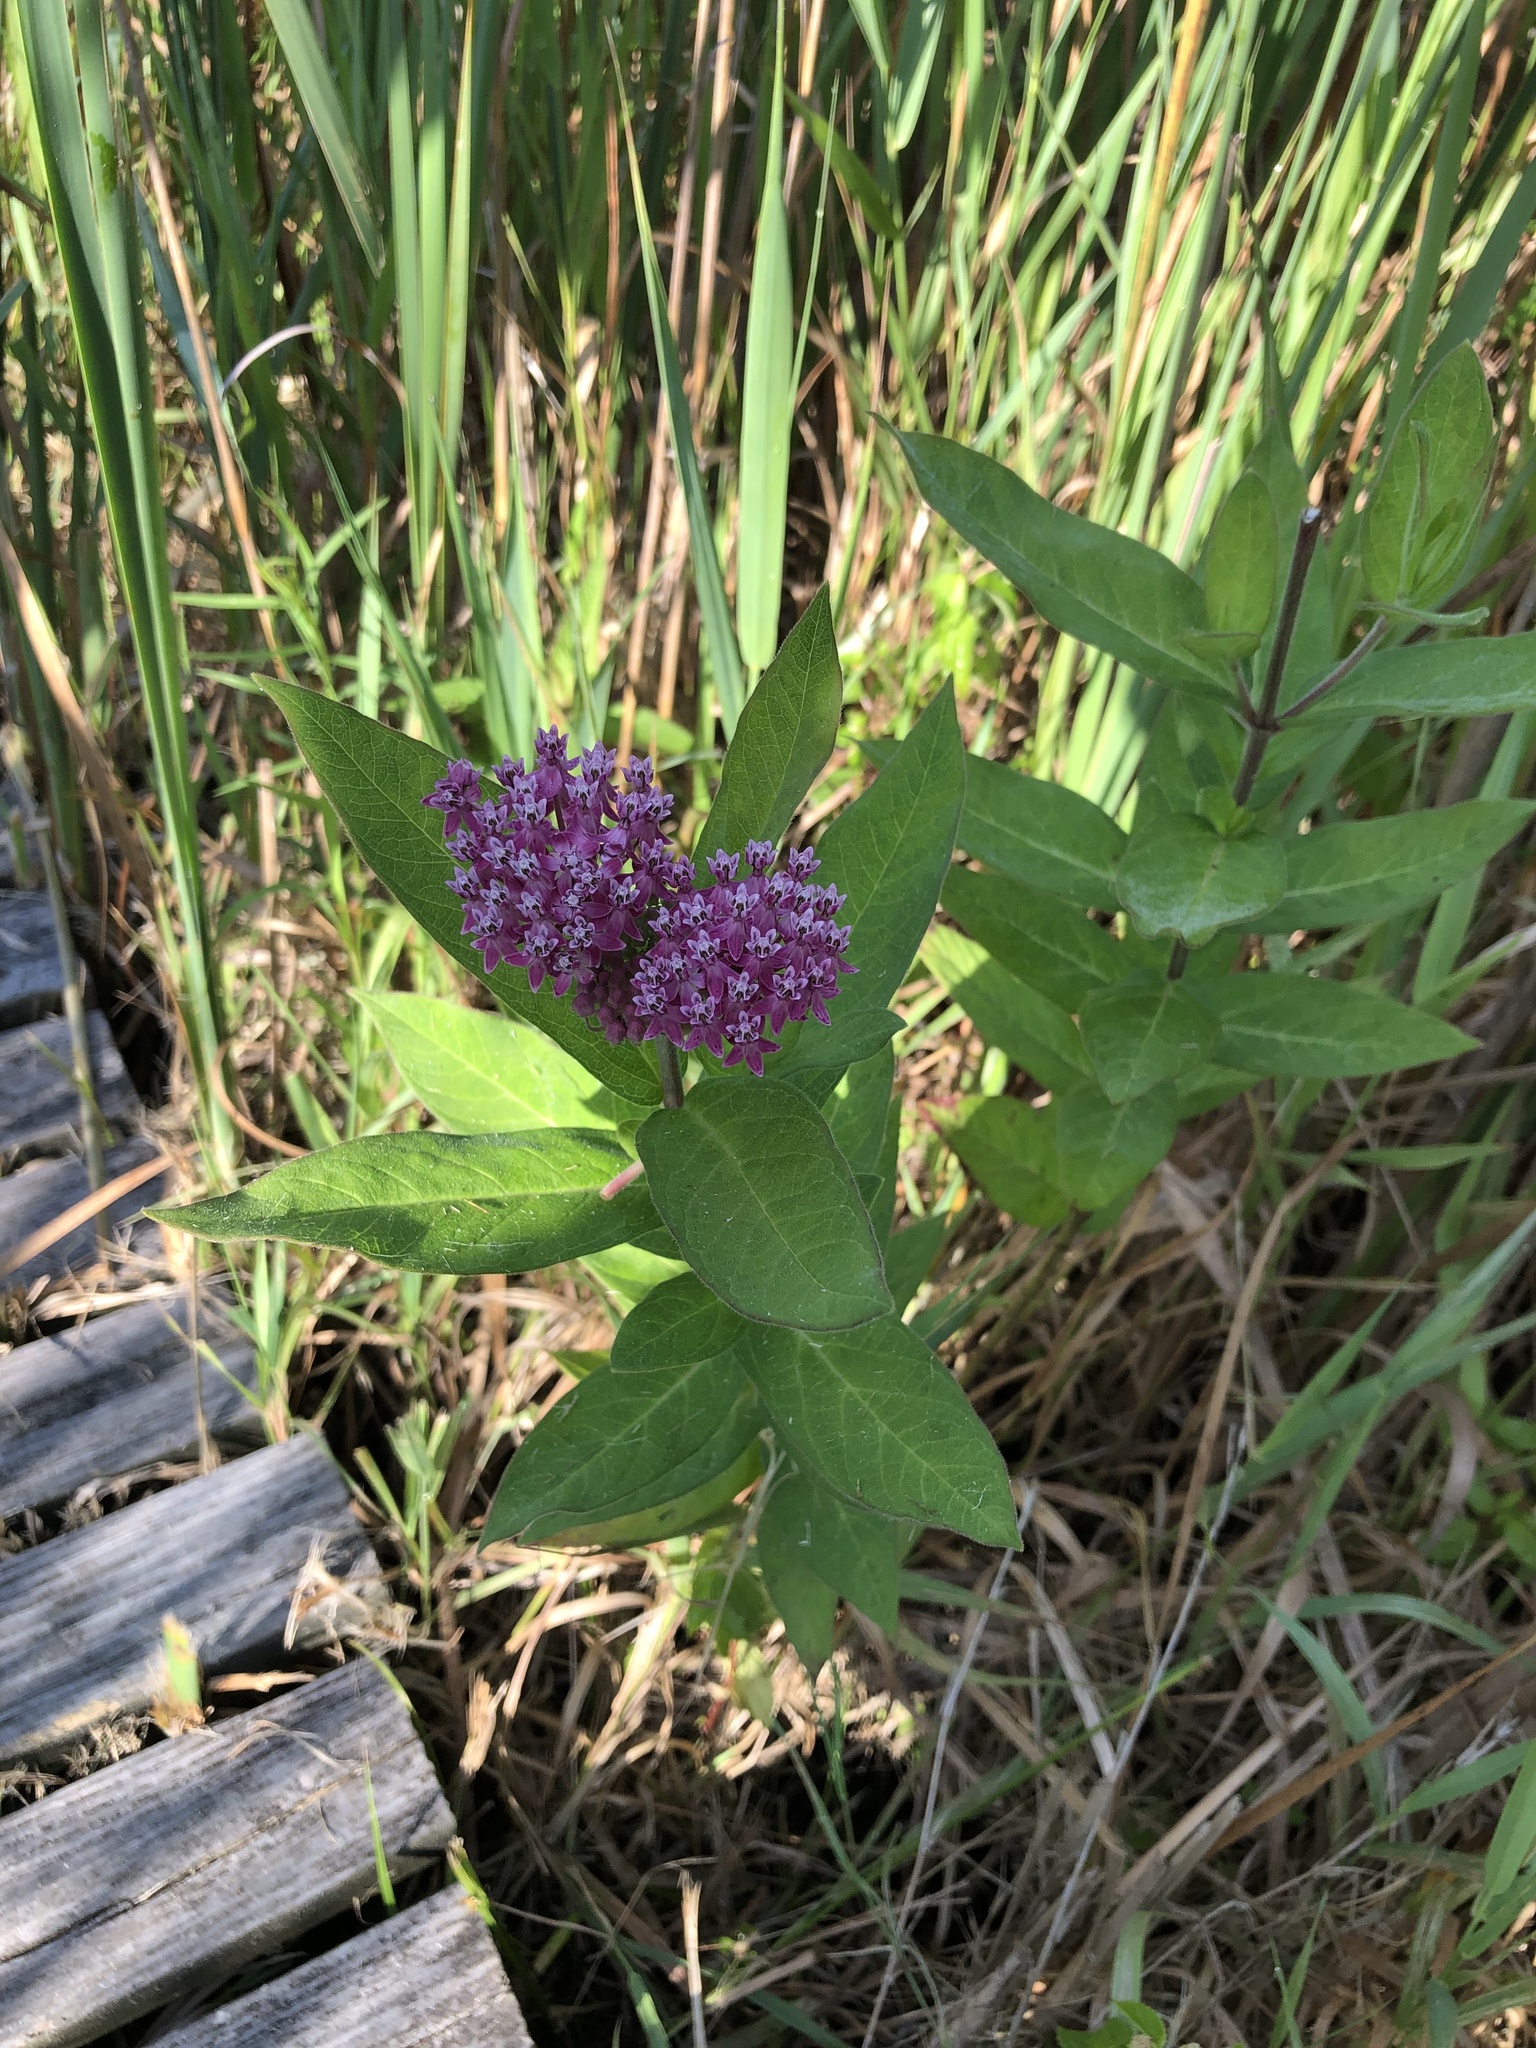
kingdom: Plantae
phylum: Tracheophyta
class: Magnoliopsida
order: Gentianales
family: Apocynaceae
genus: Asclepias
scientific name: Asclepias incarnata
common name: Swamp milkweed
